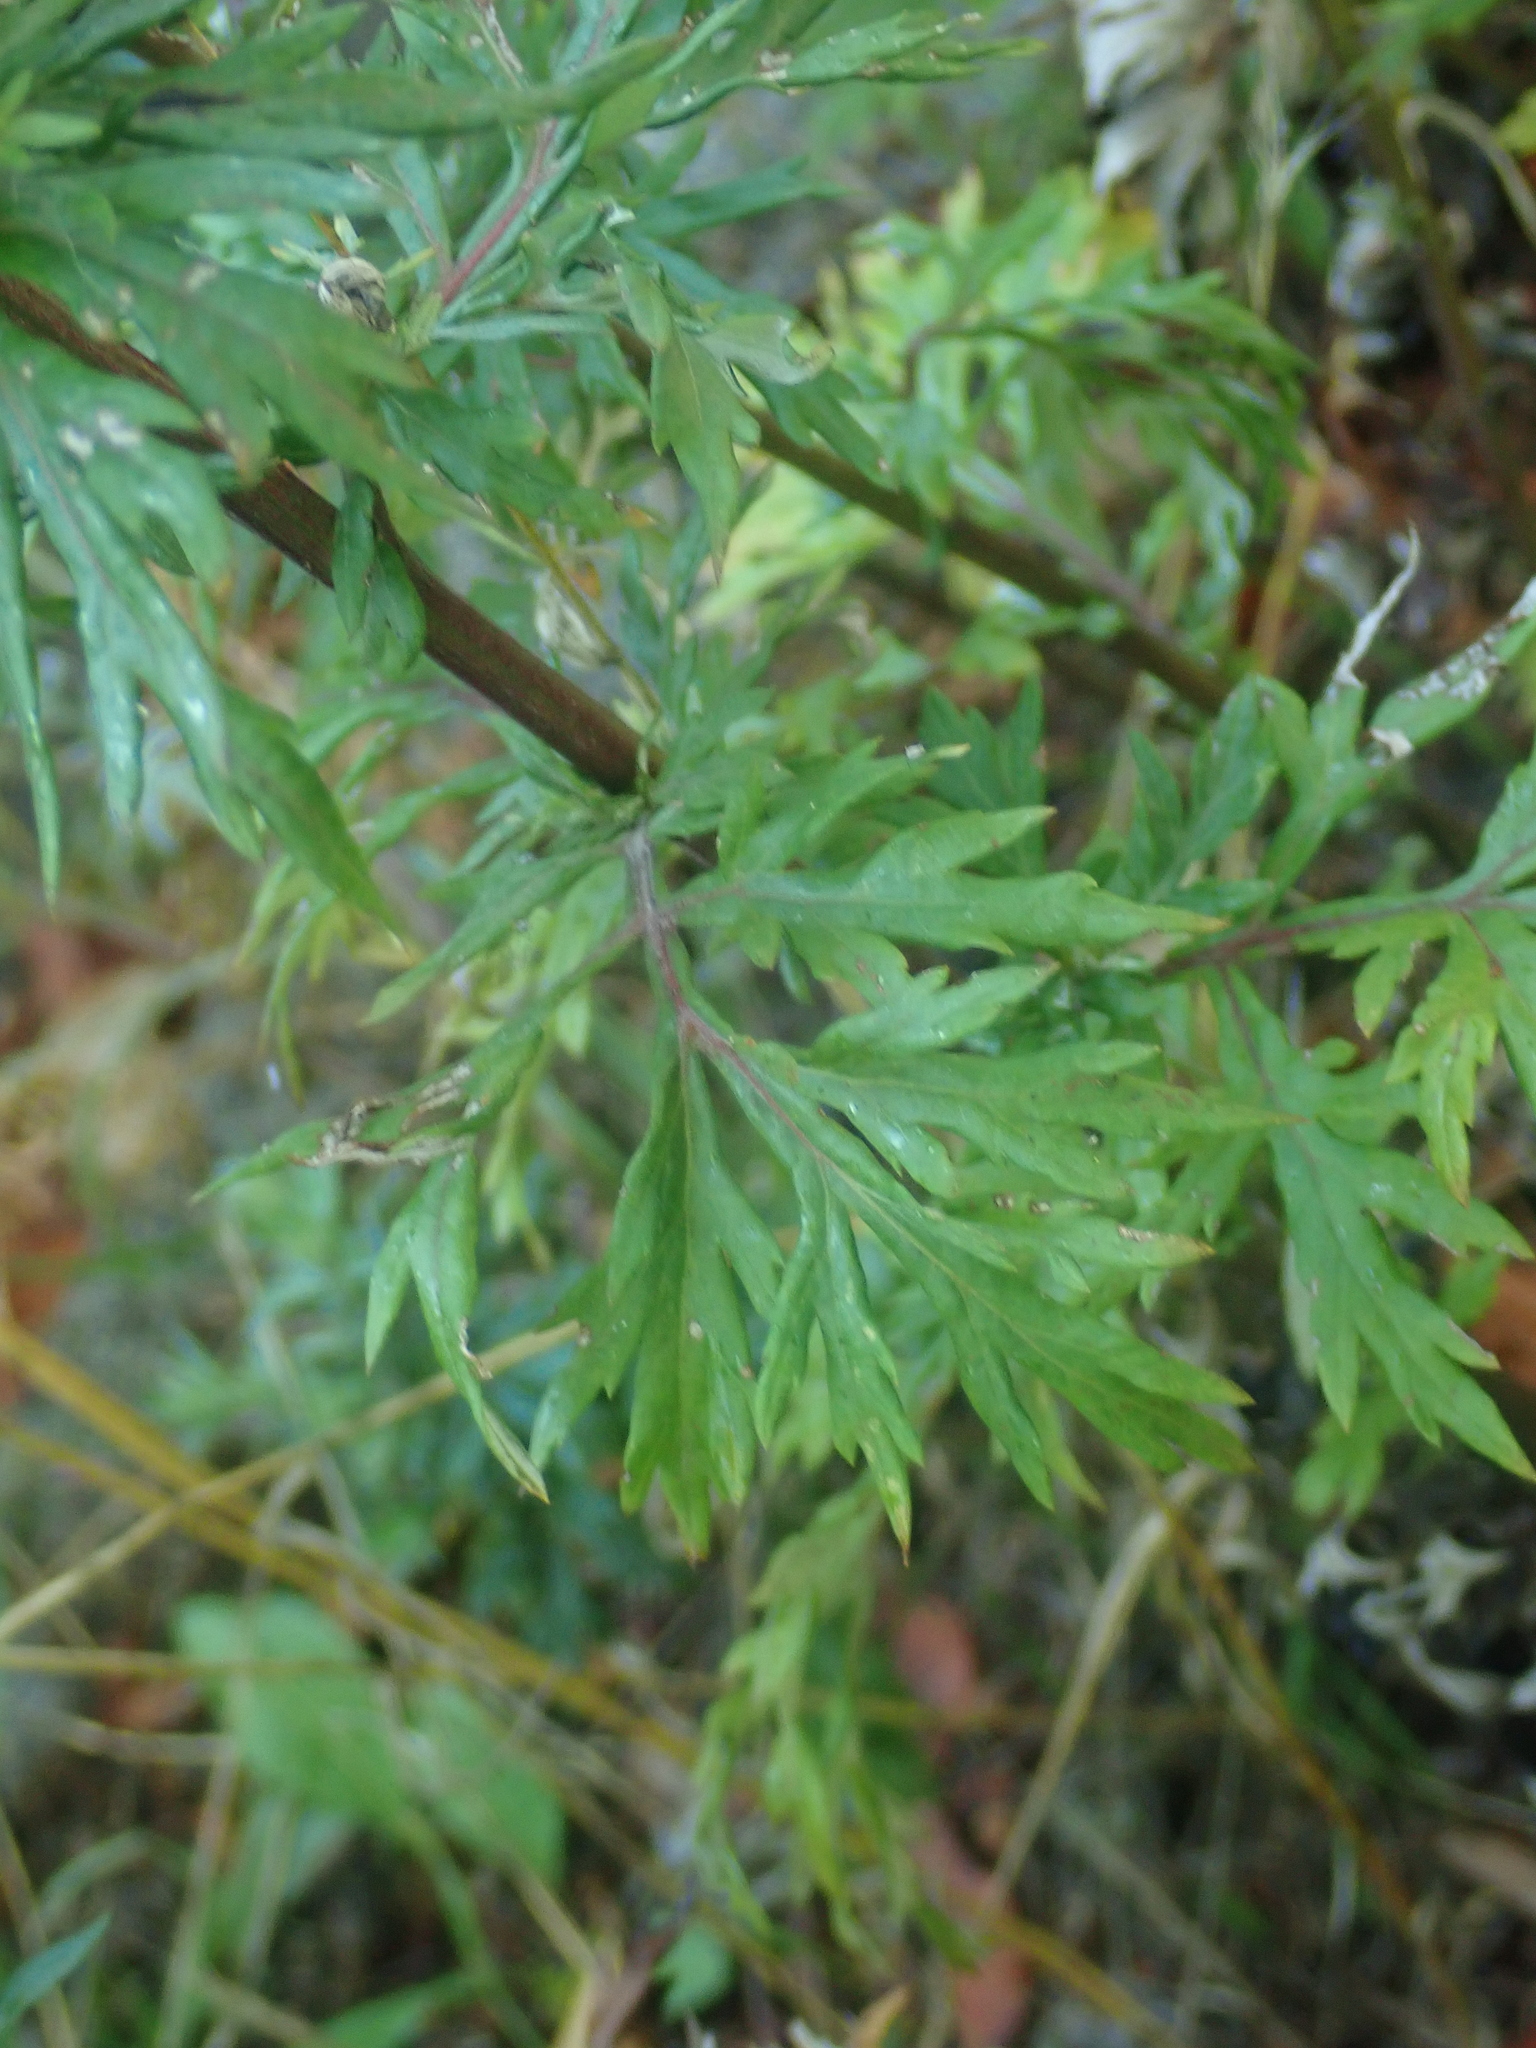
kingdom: Plantae
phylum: Tracheophyta
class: Magnoliopsida
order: Asterales
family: Asteraceae
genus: Artemisia
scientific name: Artemisia vulgaris
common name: Mugwort
